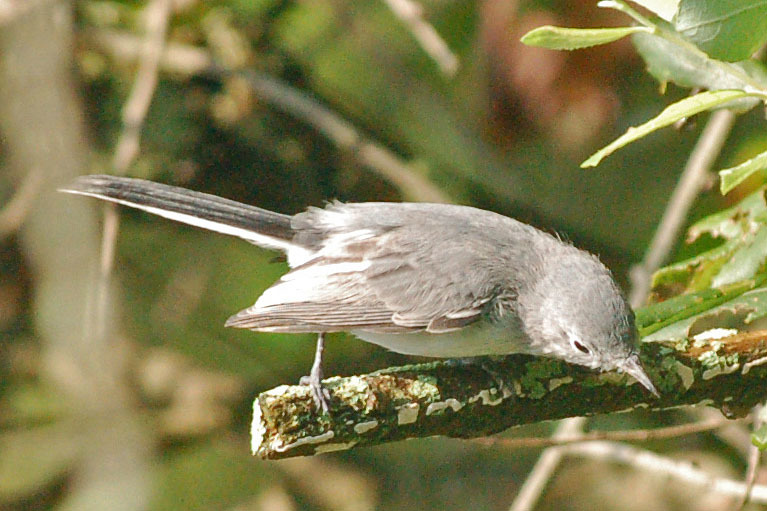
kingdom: Animalia
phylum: Chordata
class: Aves
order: Passeriformes
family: Polioptilidae
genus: Polioptila
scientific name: Polioptila caerulea
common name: Blue-gray gnatcatcher
